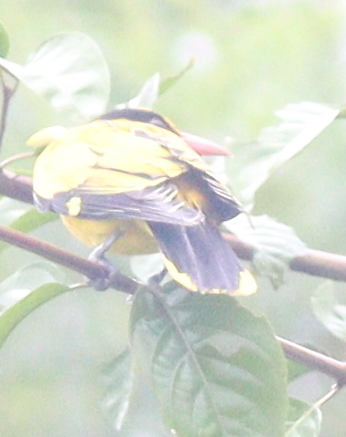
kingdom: Animalia
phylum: Chordata
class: Aves
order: Passeriformes
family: Oriolidae
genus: Oriolus
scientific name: Oriolus chinensis
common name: Black-naped oriole
